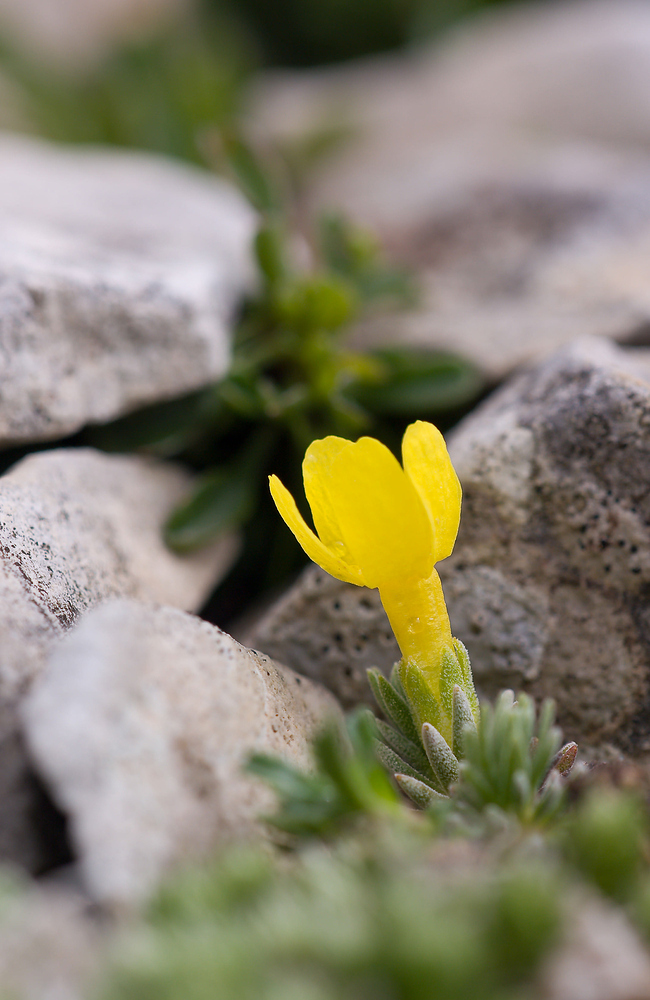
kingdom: Plantae
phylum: Tracheophyta
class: Magnoliopsida
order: Ericales
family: Primulaceae
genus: Androsace
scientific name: Androsace vitaliana
